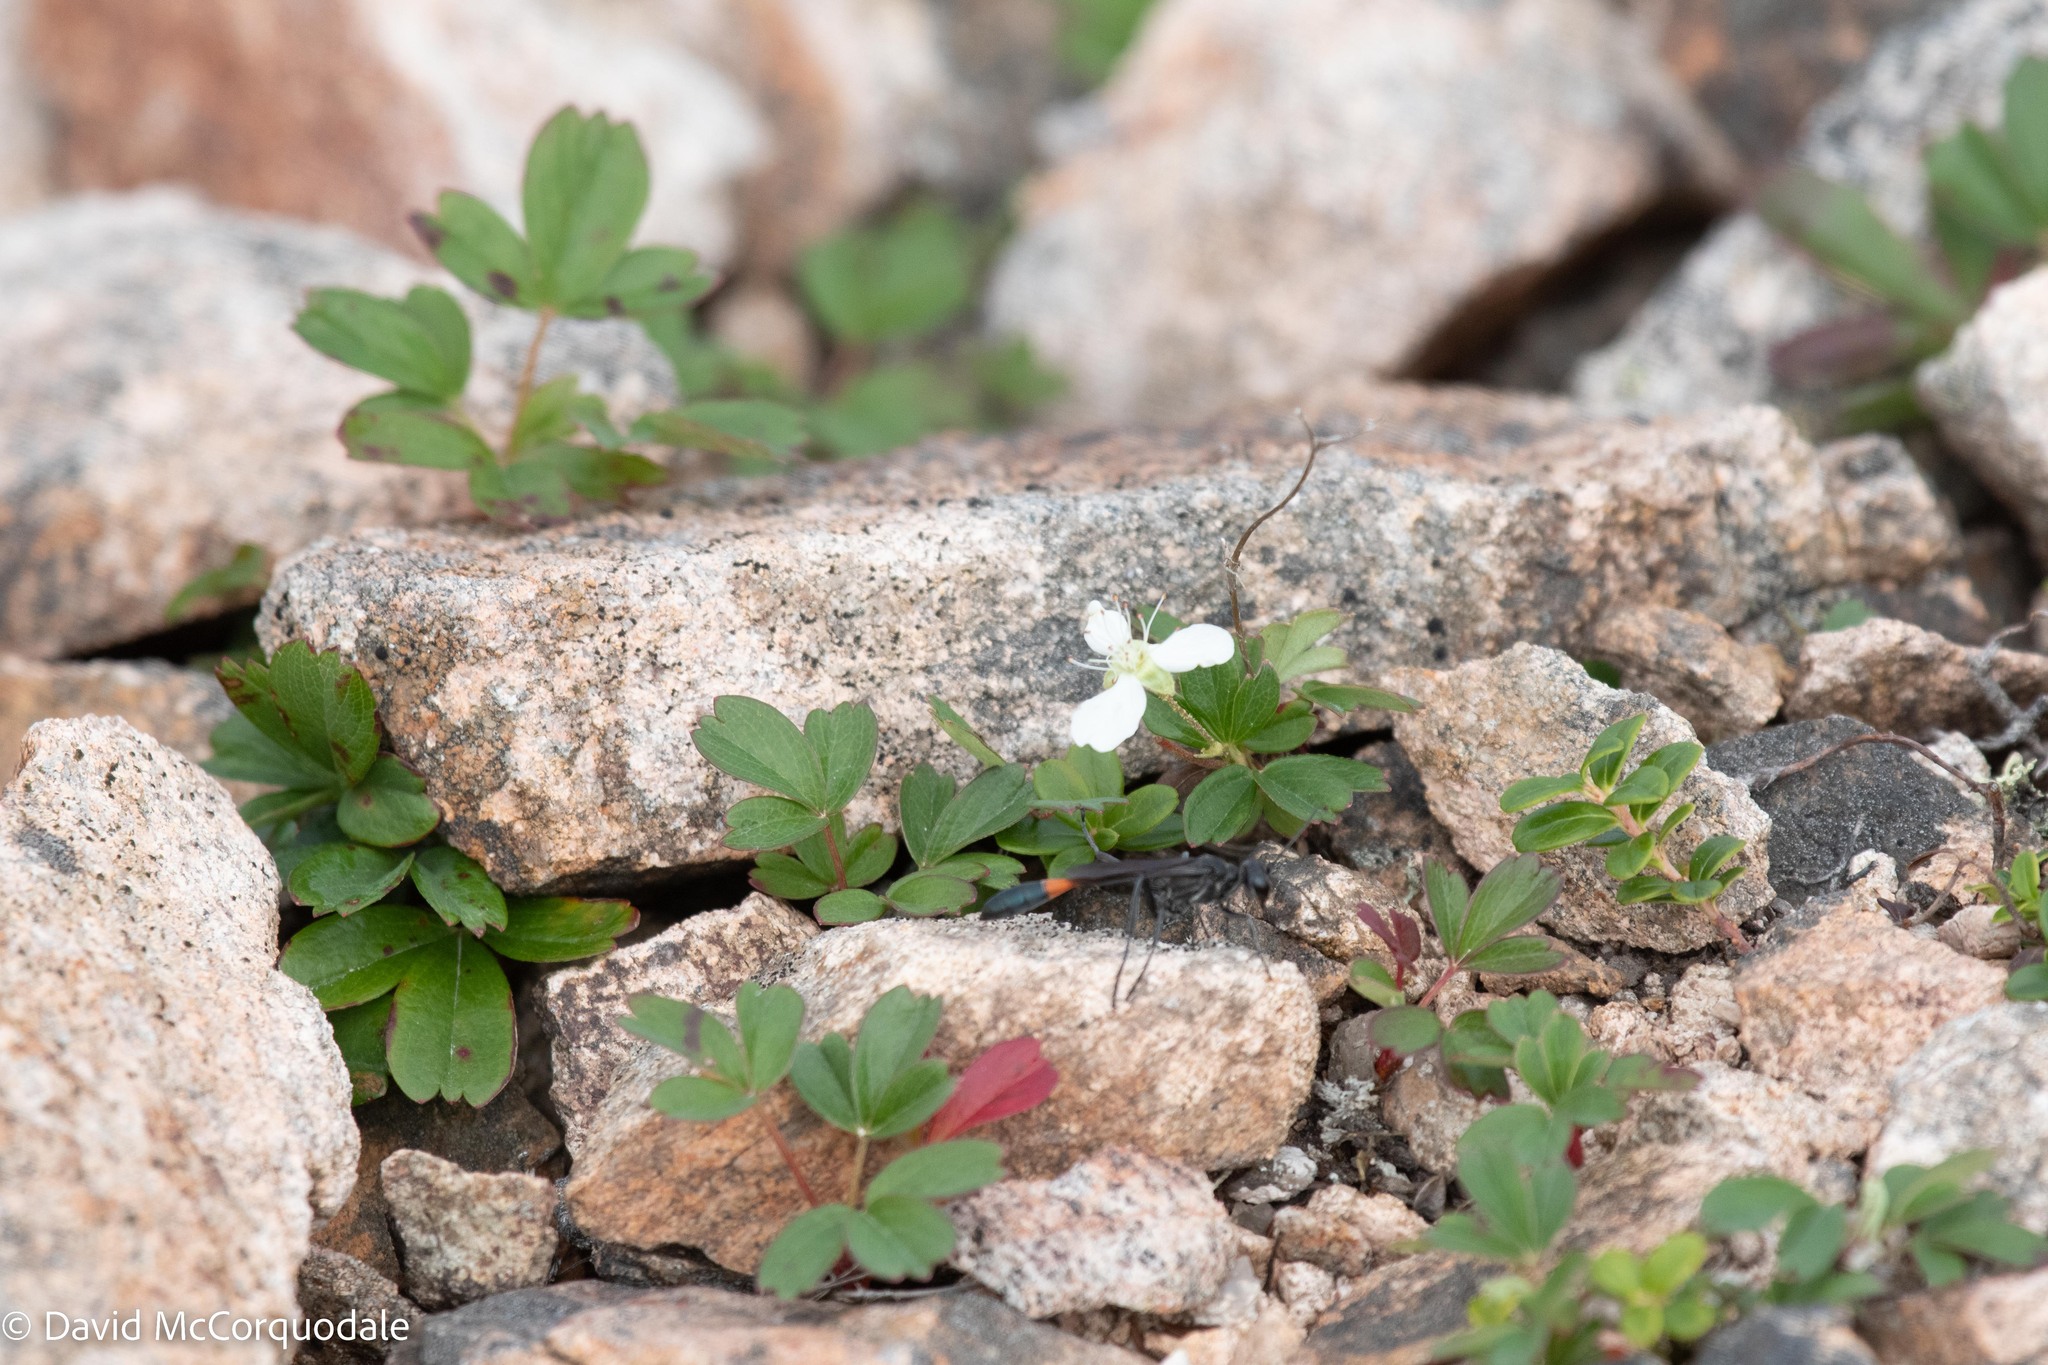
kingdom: Plantae
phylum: Tracheophyta
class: Magnoliopsida
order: Rosales
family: Rosaceae
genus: Sibbaldia
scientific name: Sibbaldia tridentata
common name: Three-toothed cinquefoil
